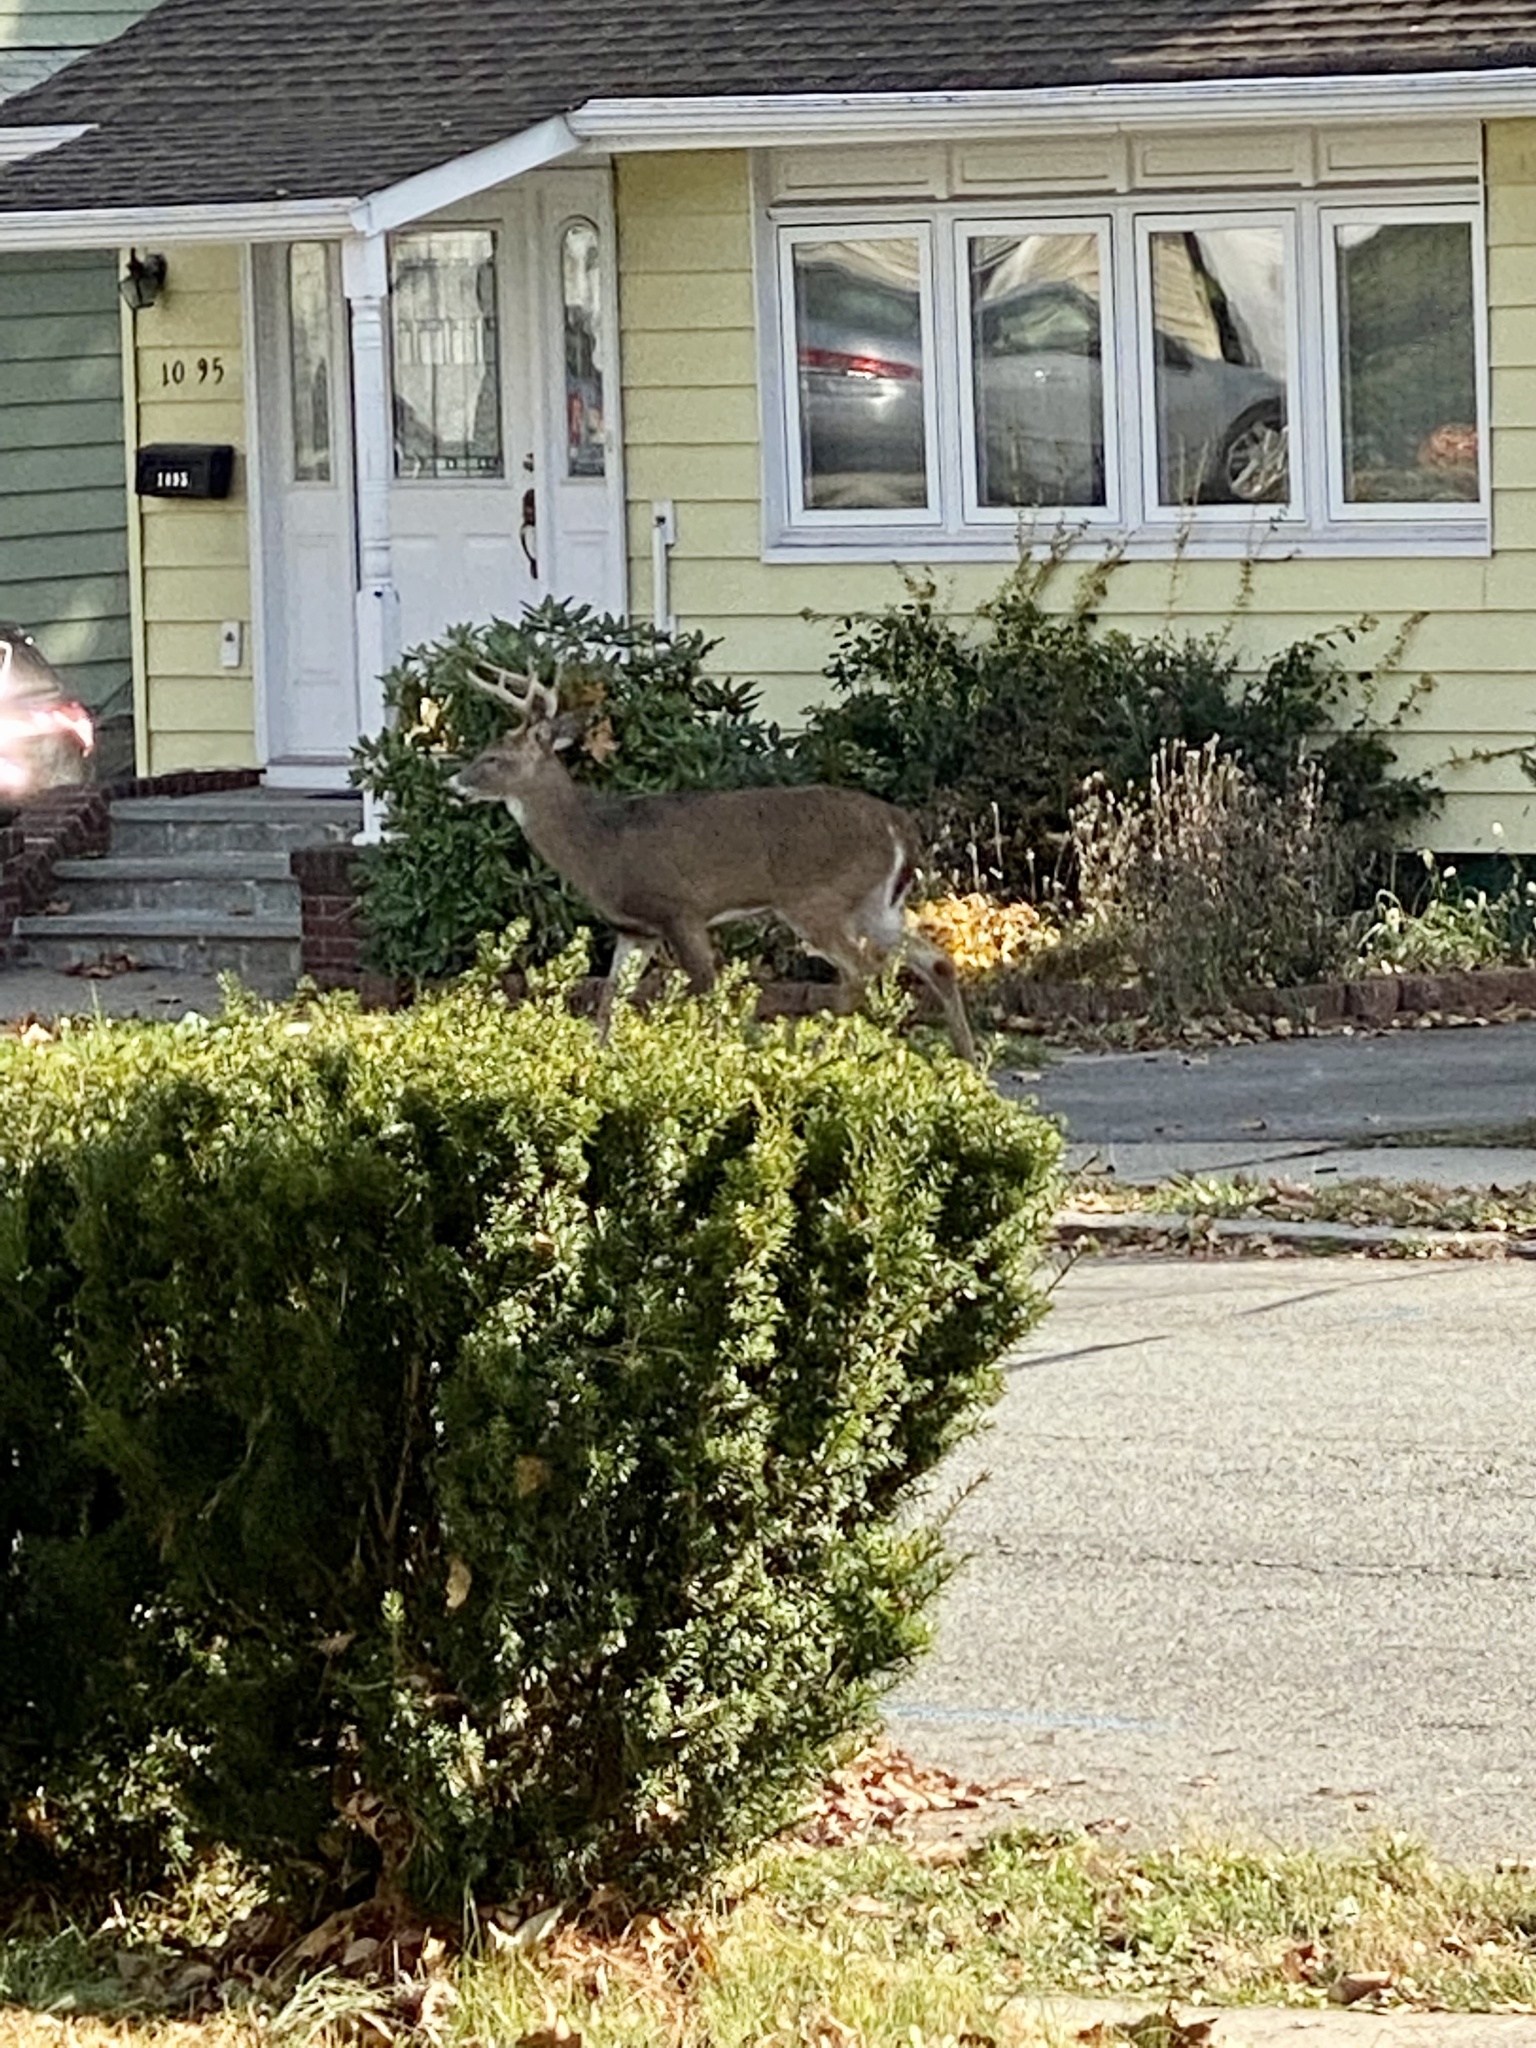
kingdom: Animalia
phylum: Chordata
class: Mammalia
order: Artiodactyla
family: Cervidae
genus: Odocoileus
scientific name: Odocoileus virginianus
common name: White-tailed deer
